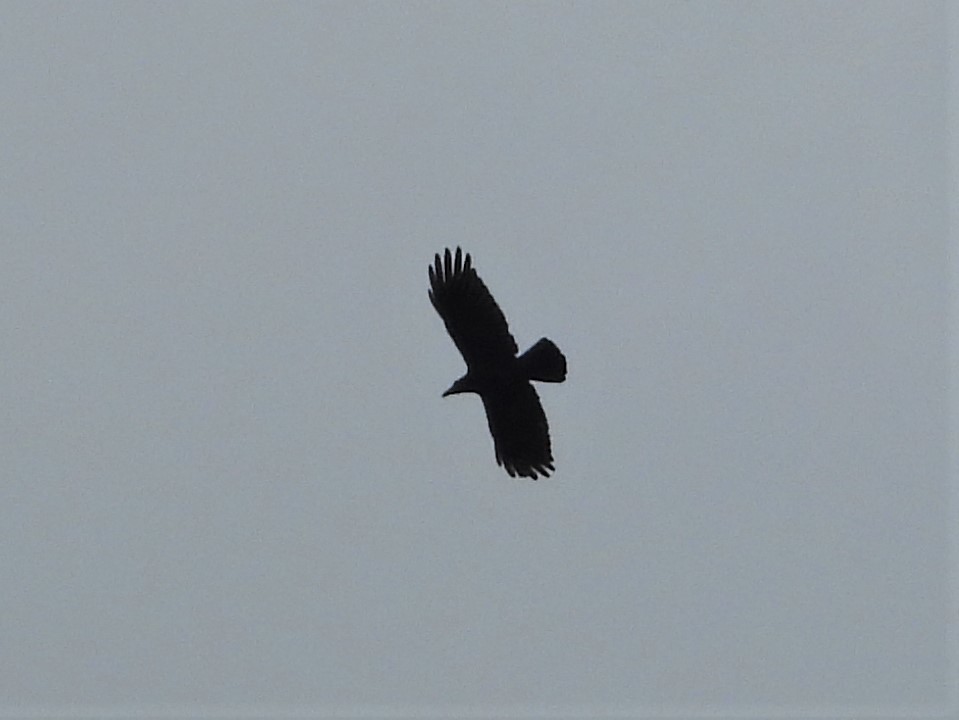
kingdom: Animalia
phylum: Chordata
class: Aves
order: Passeriformes
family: Corvidae
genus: Corvus
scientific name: Corvus macrorhynchos
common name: Large-billed crow
